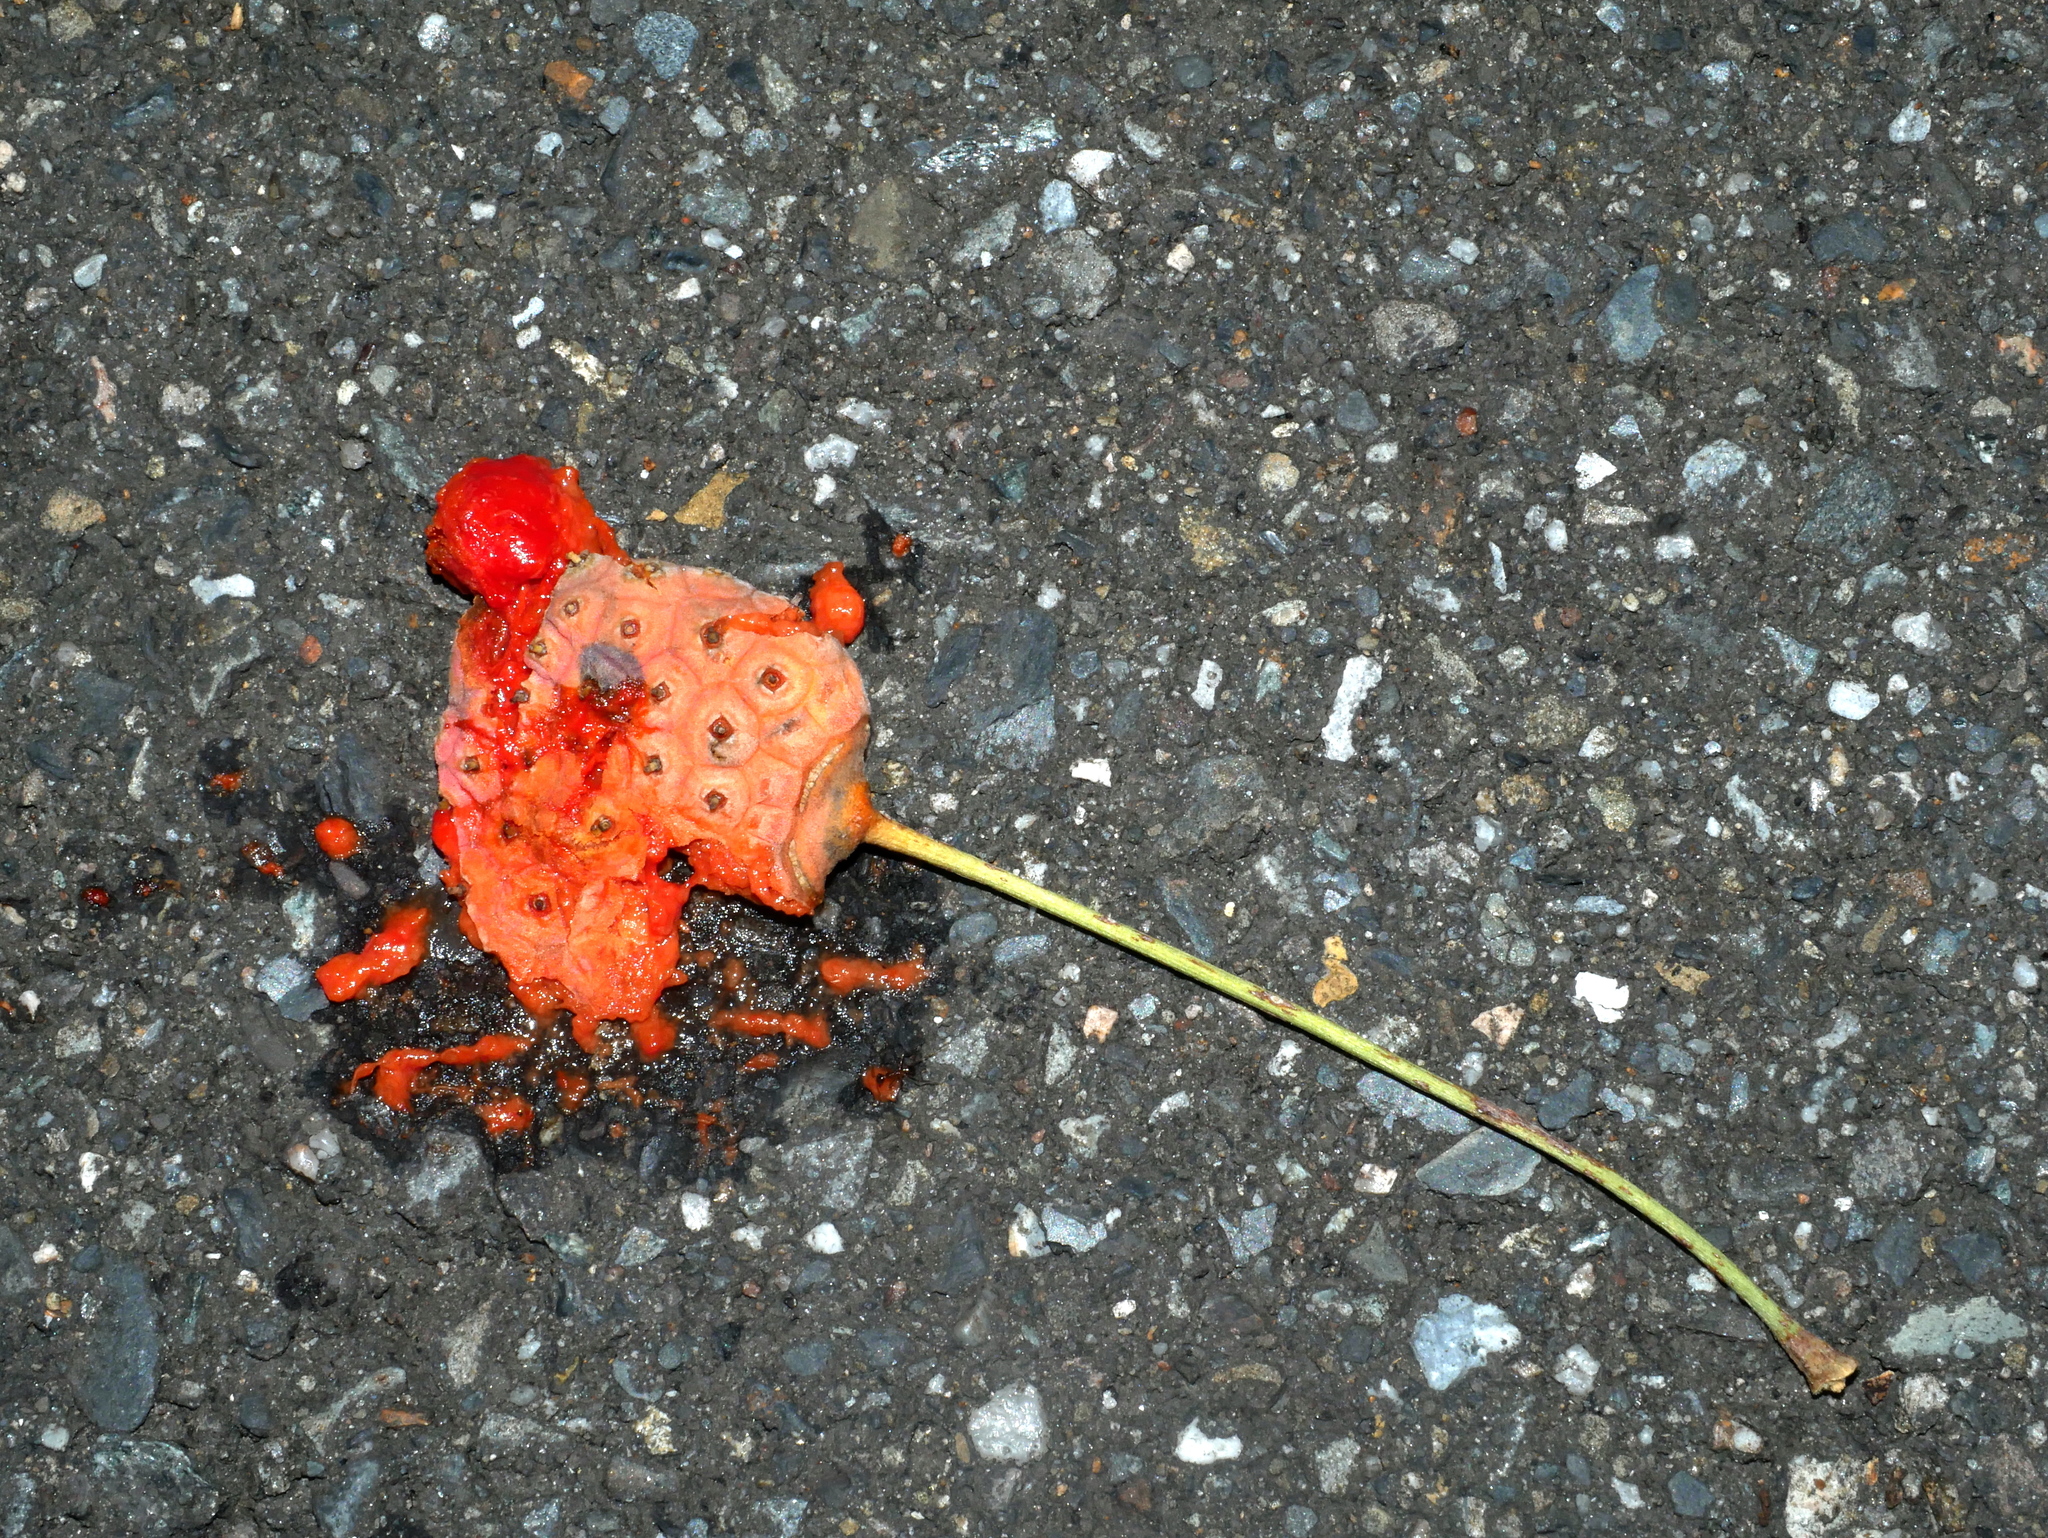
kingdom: Plantae
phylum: Tracheophyta
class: Magnoliopsida
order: Cornales
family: Cornaceae
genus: Cornus
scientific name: Cornus kousa
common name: Japanese dogwood
